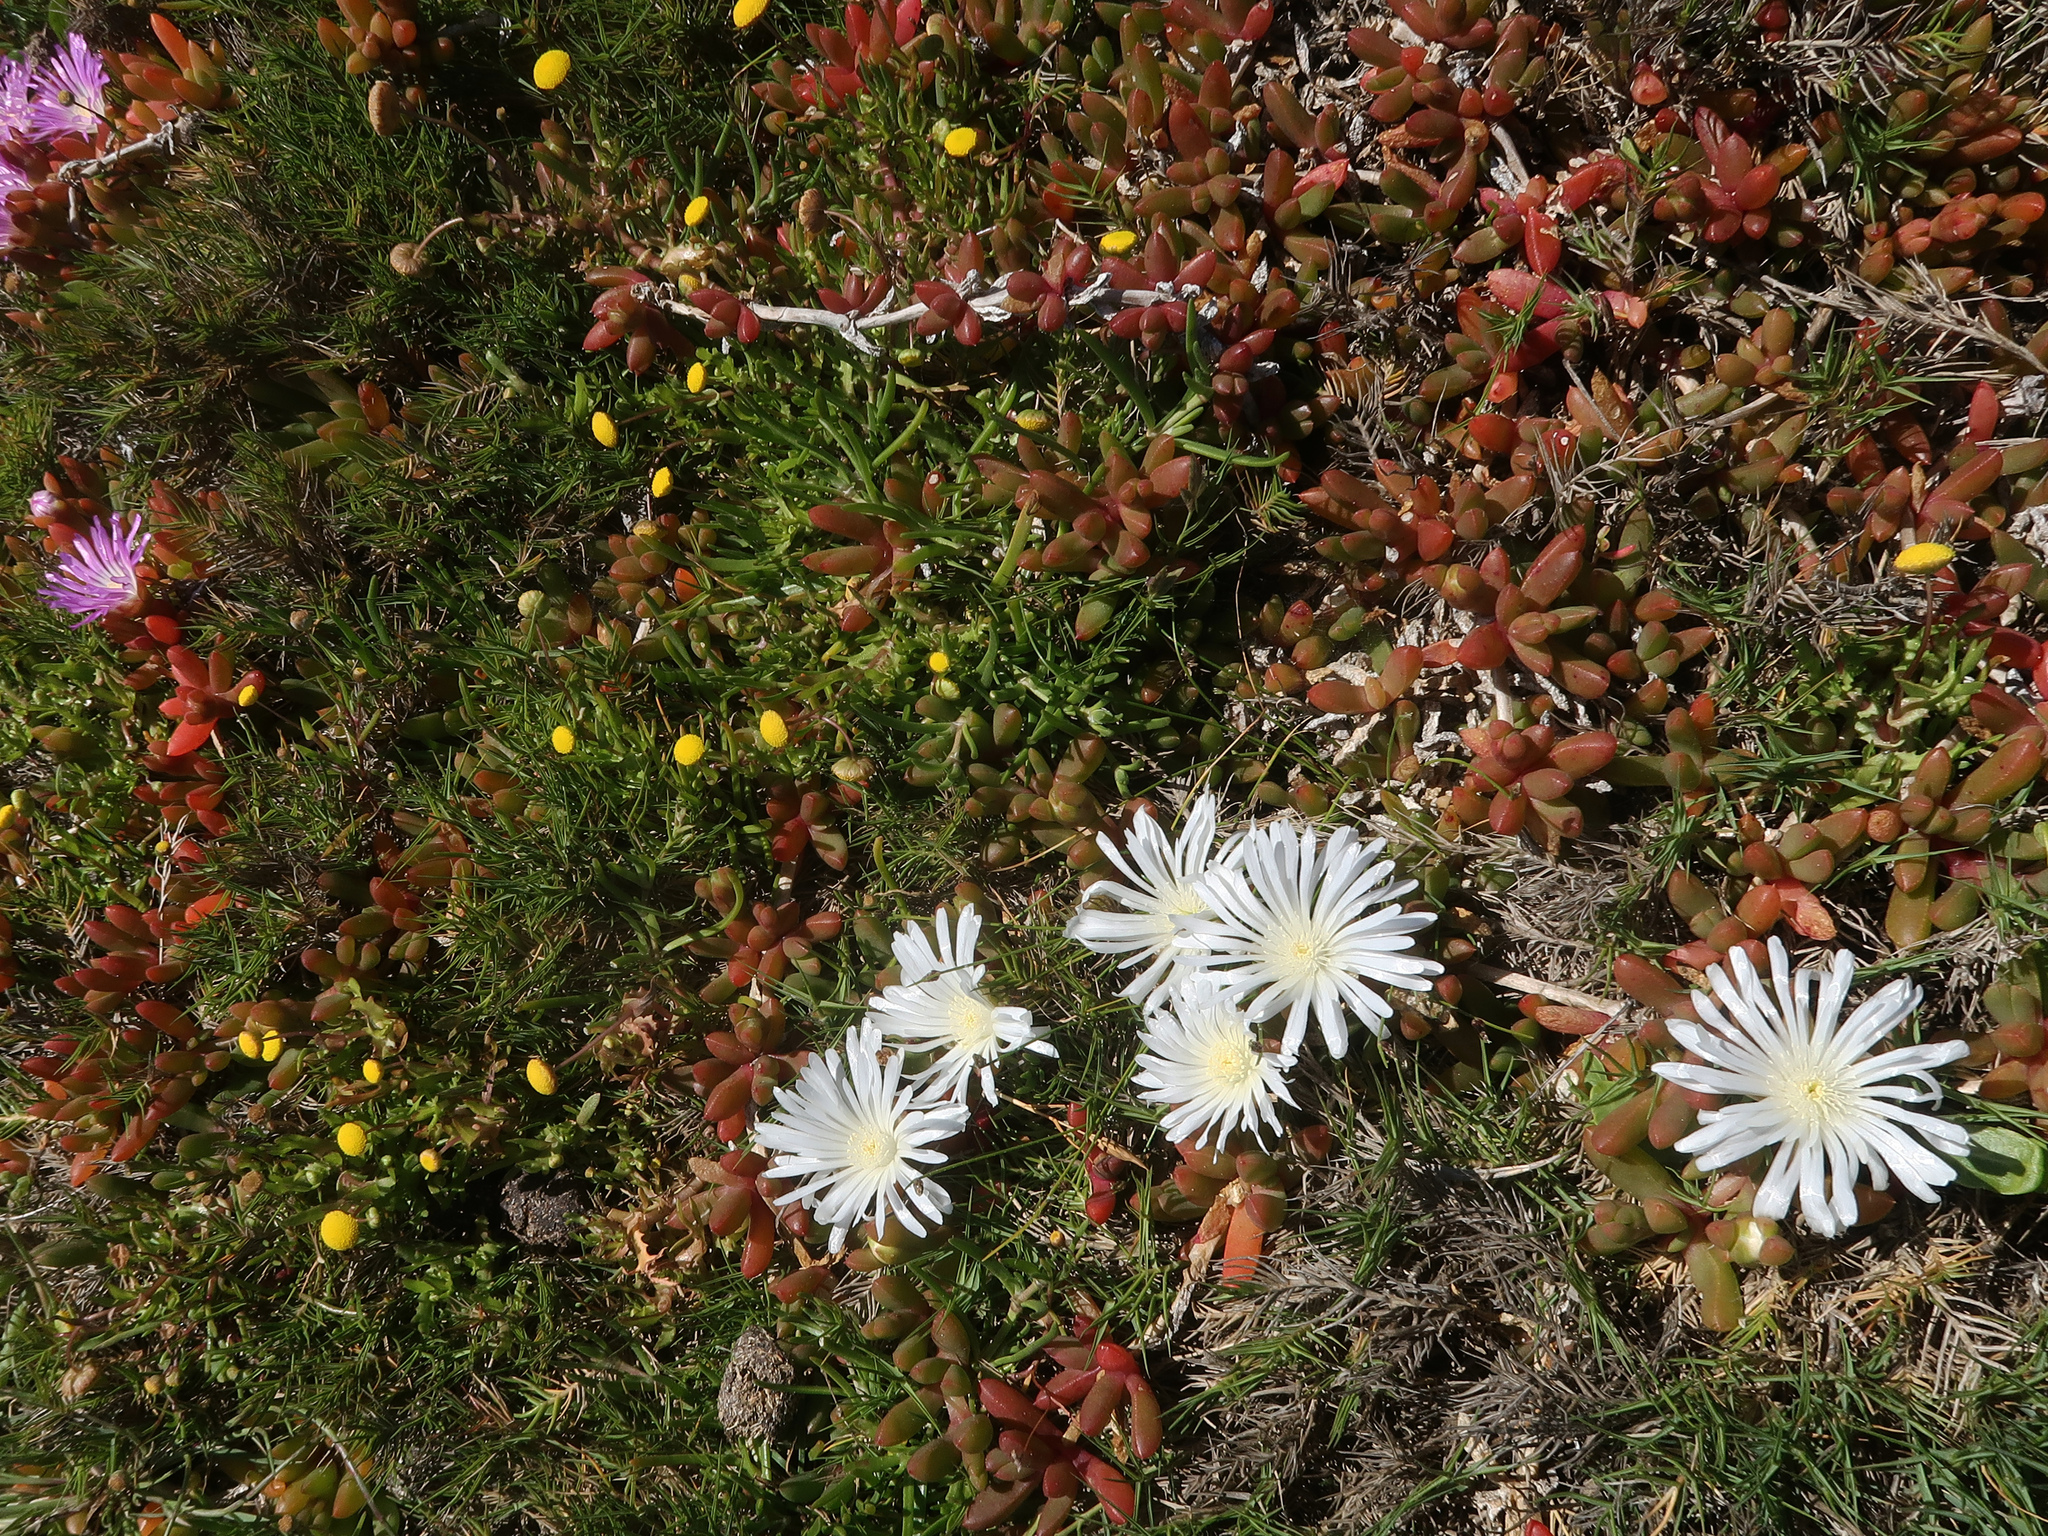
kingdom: Plantae
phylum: Tracheophyta
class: Magnoliopsida
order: Caryophyllales
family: Aizoaceae
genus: Disphyma
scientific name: Disphyma clavellatum
